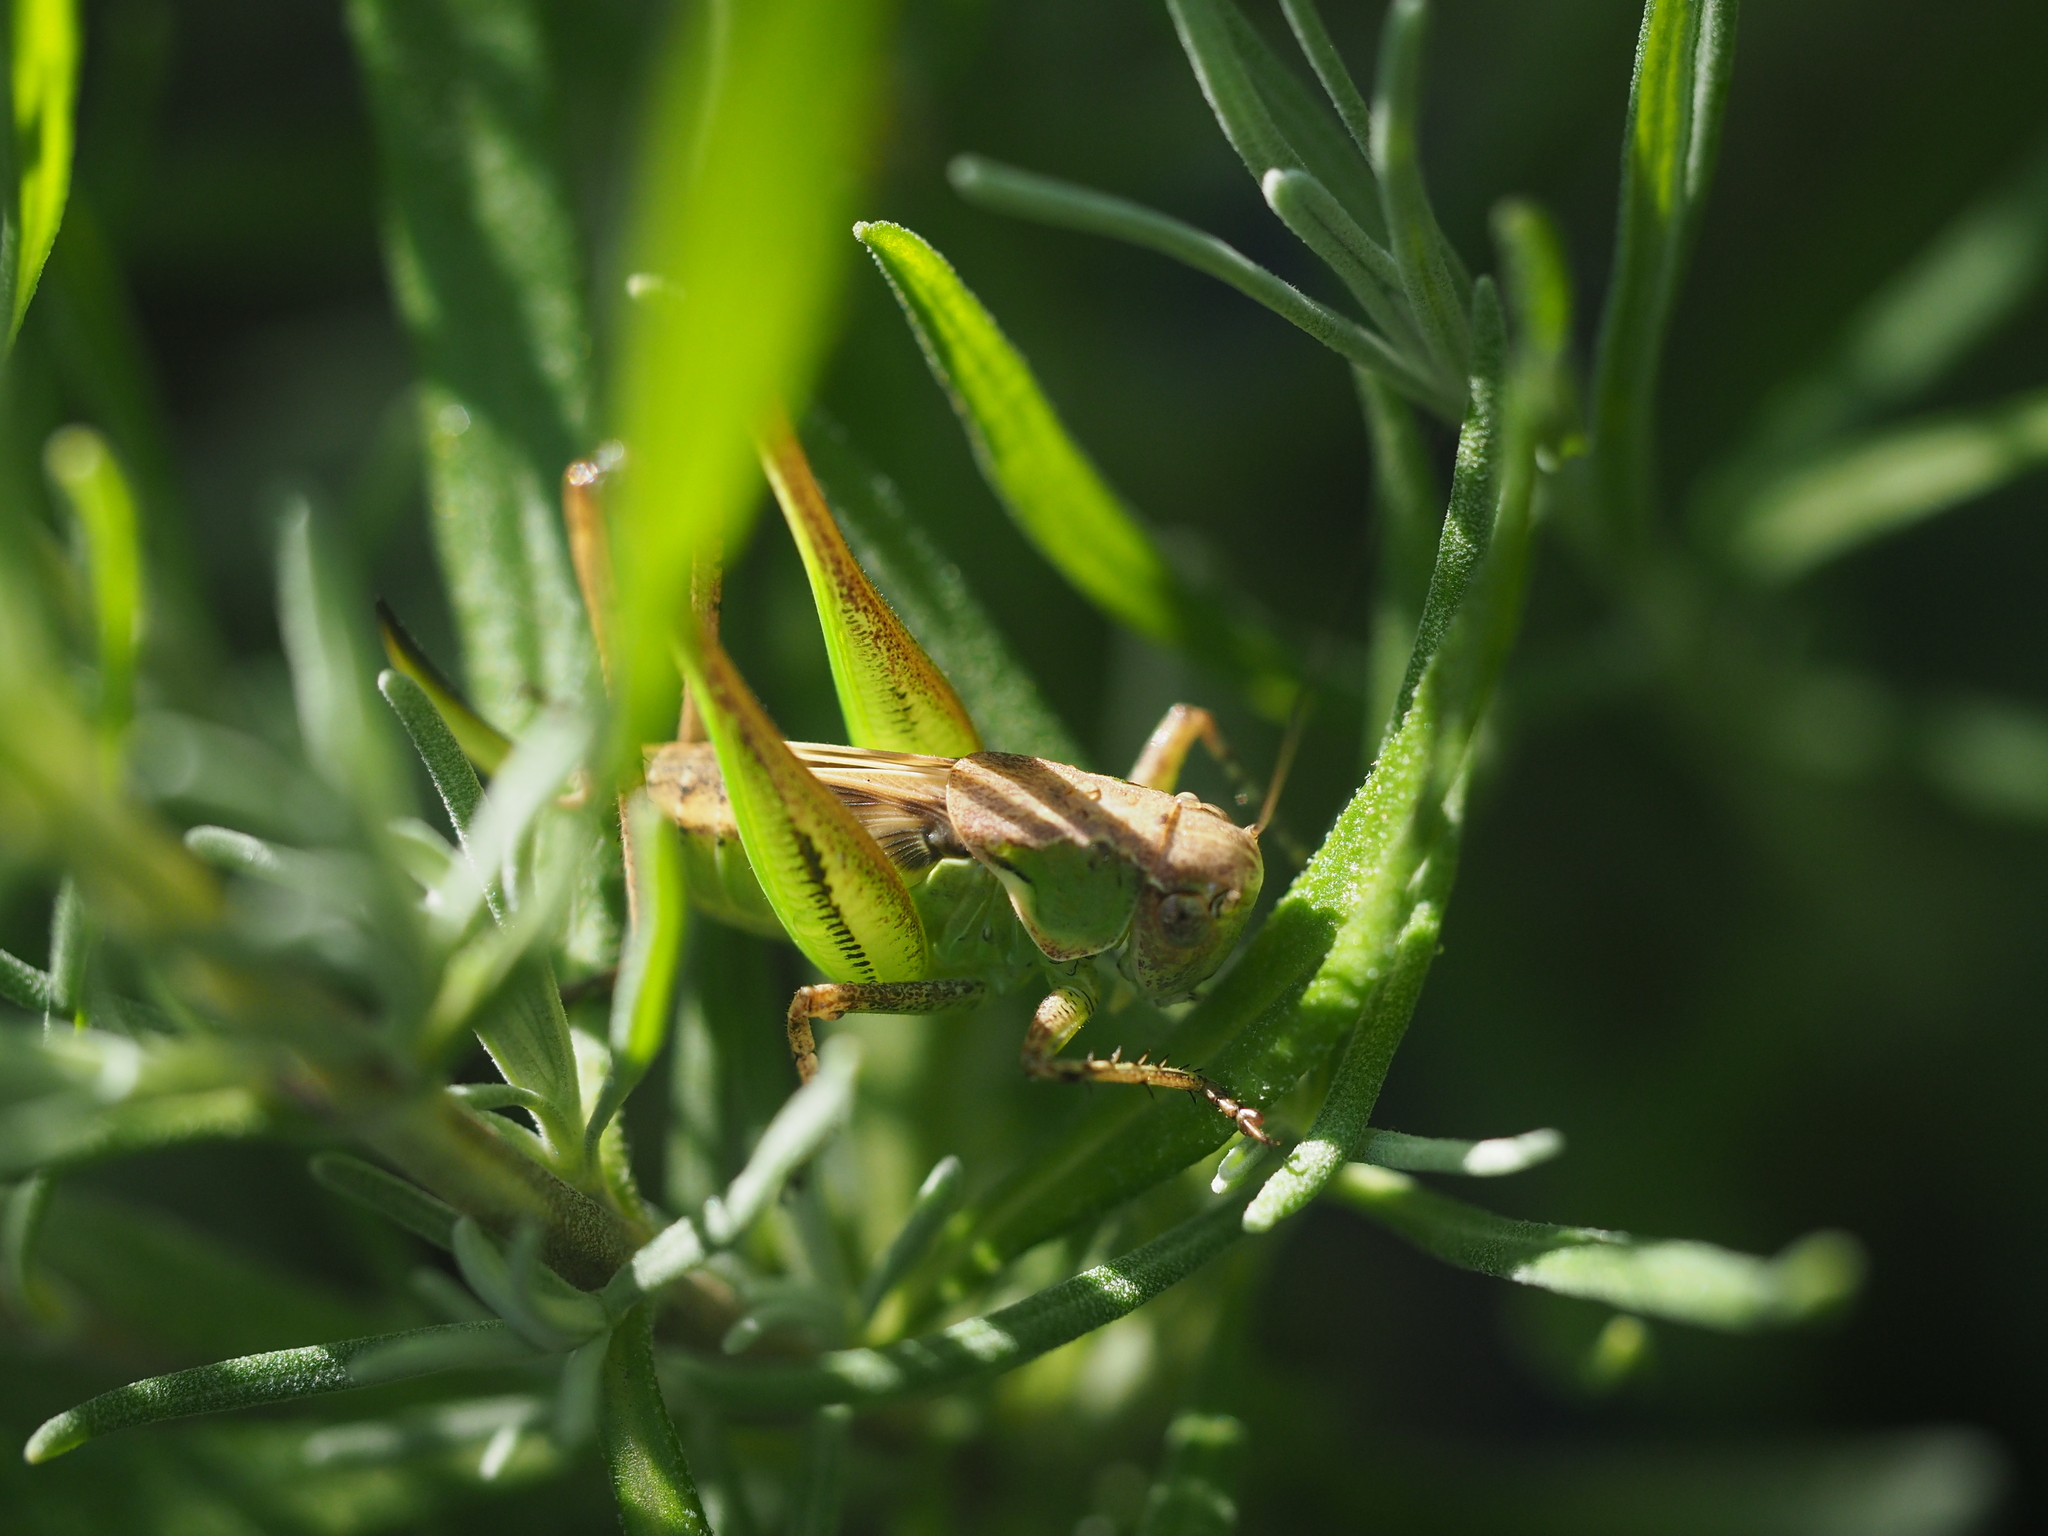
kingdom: Animalia
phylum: Arthropoda
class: Insecta
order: Orthoptera
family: Tettigoniidae
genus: Platycleis
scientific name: Platycleis grisea
